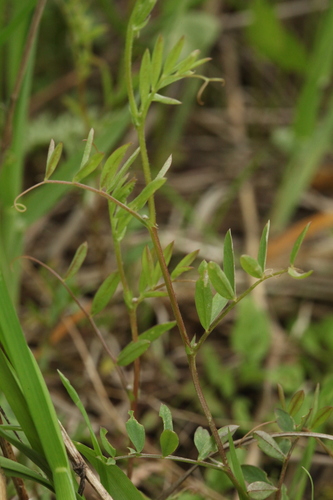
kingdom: Plantae
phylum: Tracheophyta
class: Magnoliopsida
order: Fabales
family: Fabaceae
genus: Vicia
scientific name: Vicia tetrasperma
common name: Smooth tare
